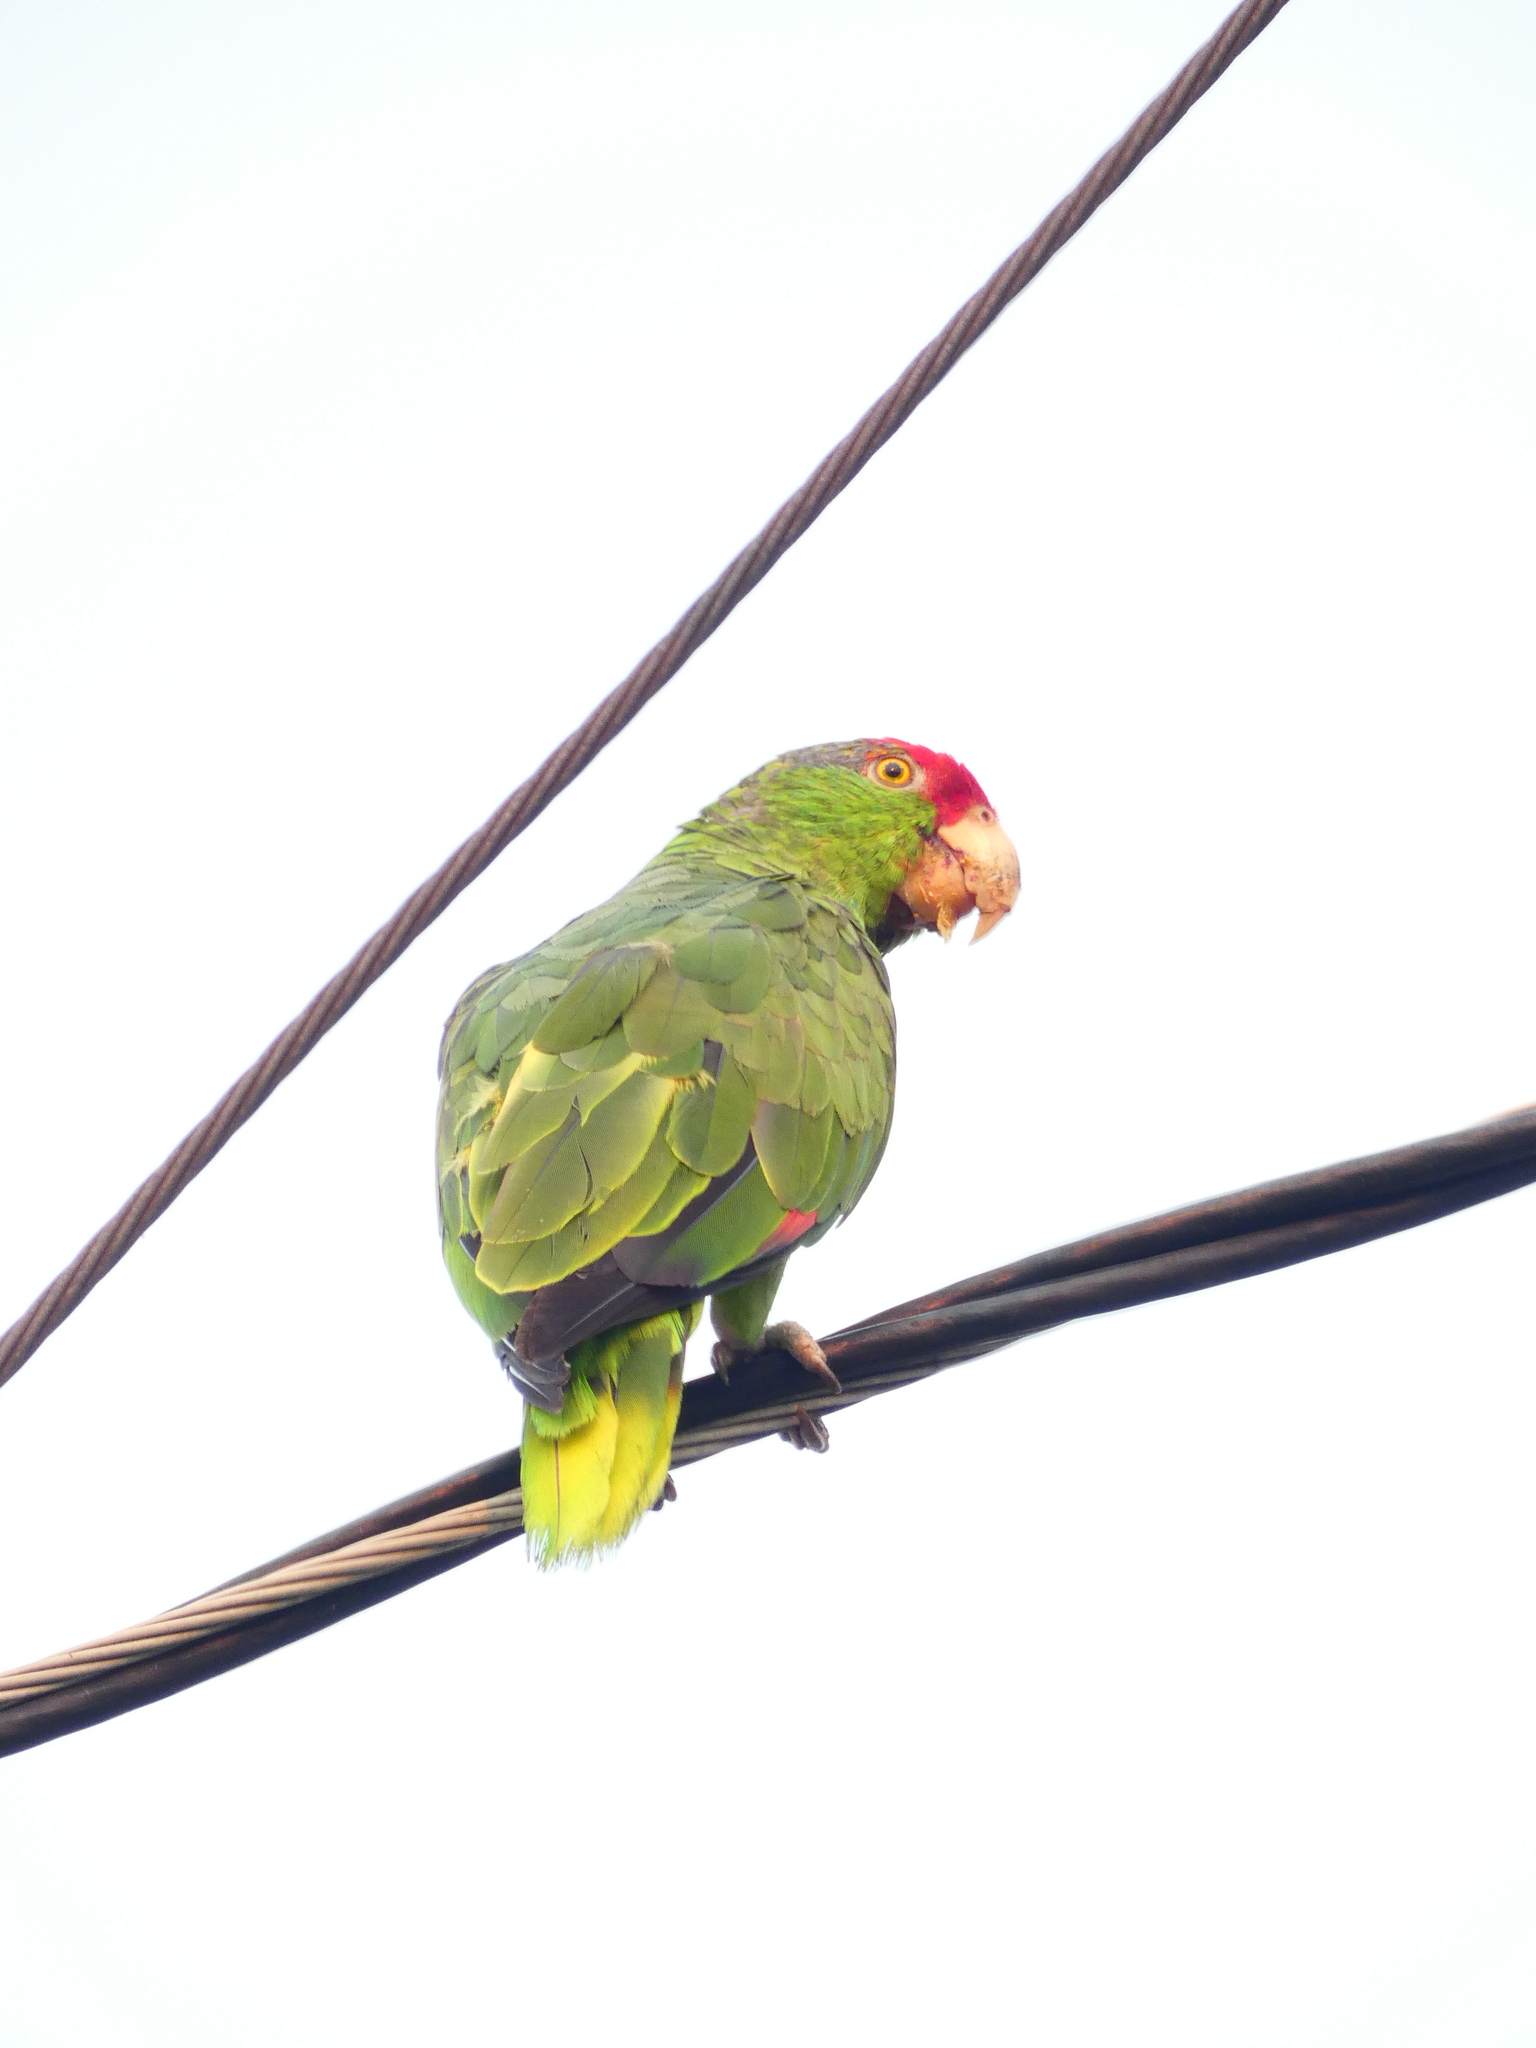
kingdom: Animalia
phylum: Chordata
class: Aves
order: Psittaciformes
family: Psittacidae
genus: Amazona
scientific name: Amazona viridigenalis
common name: Red-crowned amazon
